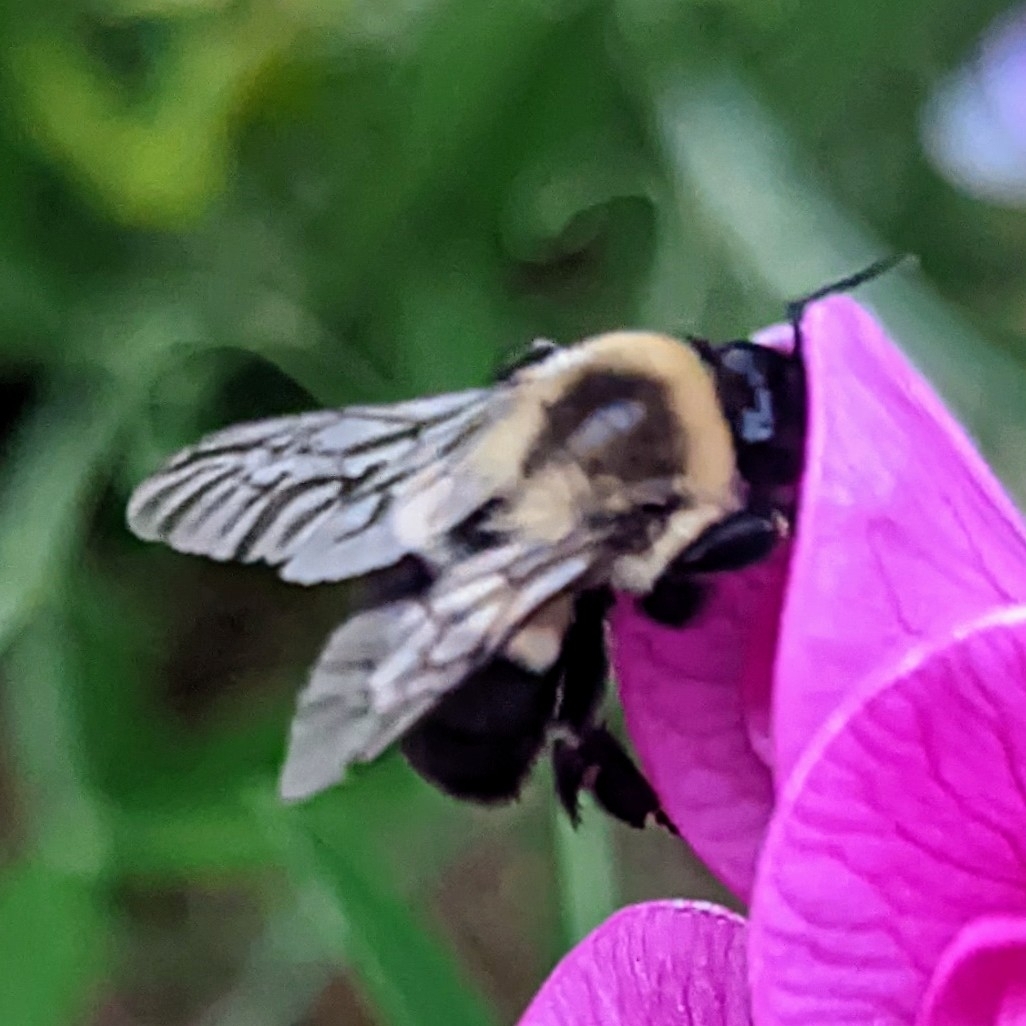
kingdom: Animalia
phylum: Arthropoda
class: Insecta
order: Hymenoptera
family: Apidae
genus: Bombus
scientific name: Bombus impatiens
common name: Common eastern bumble bee
